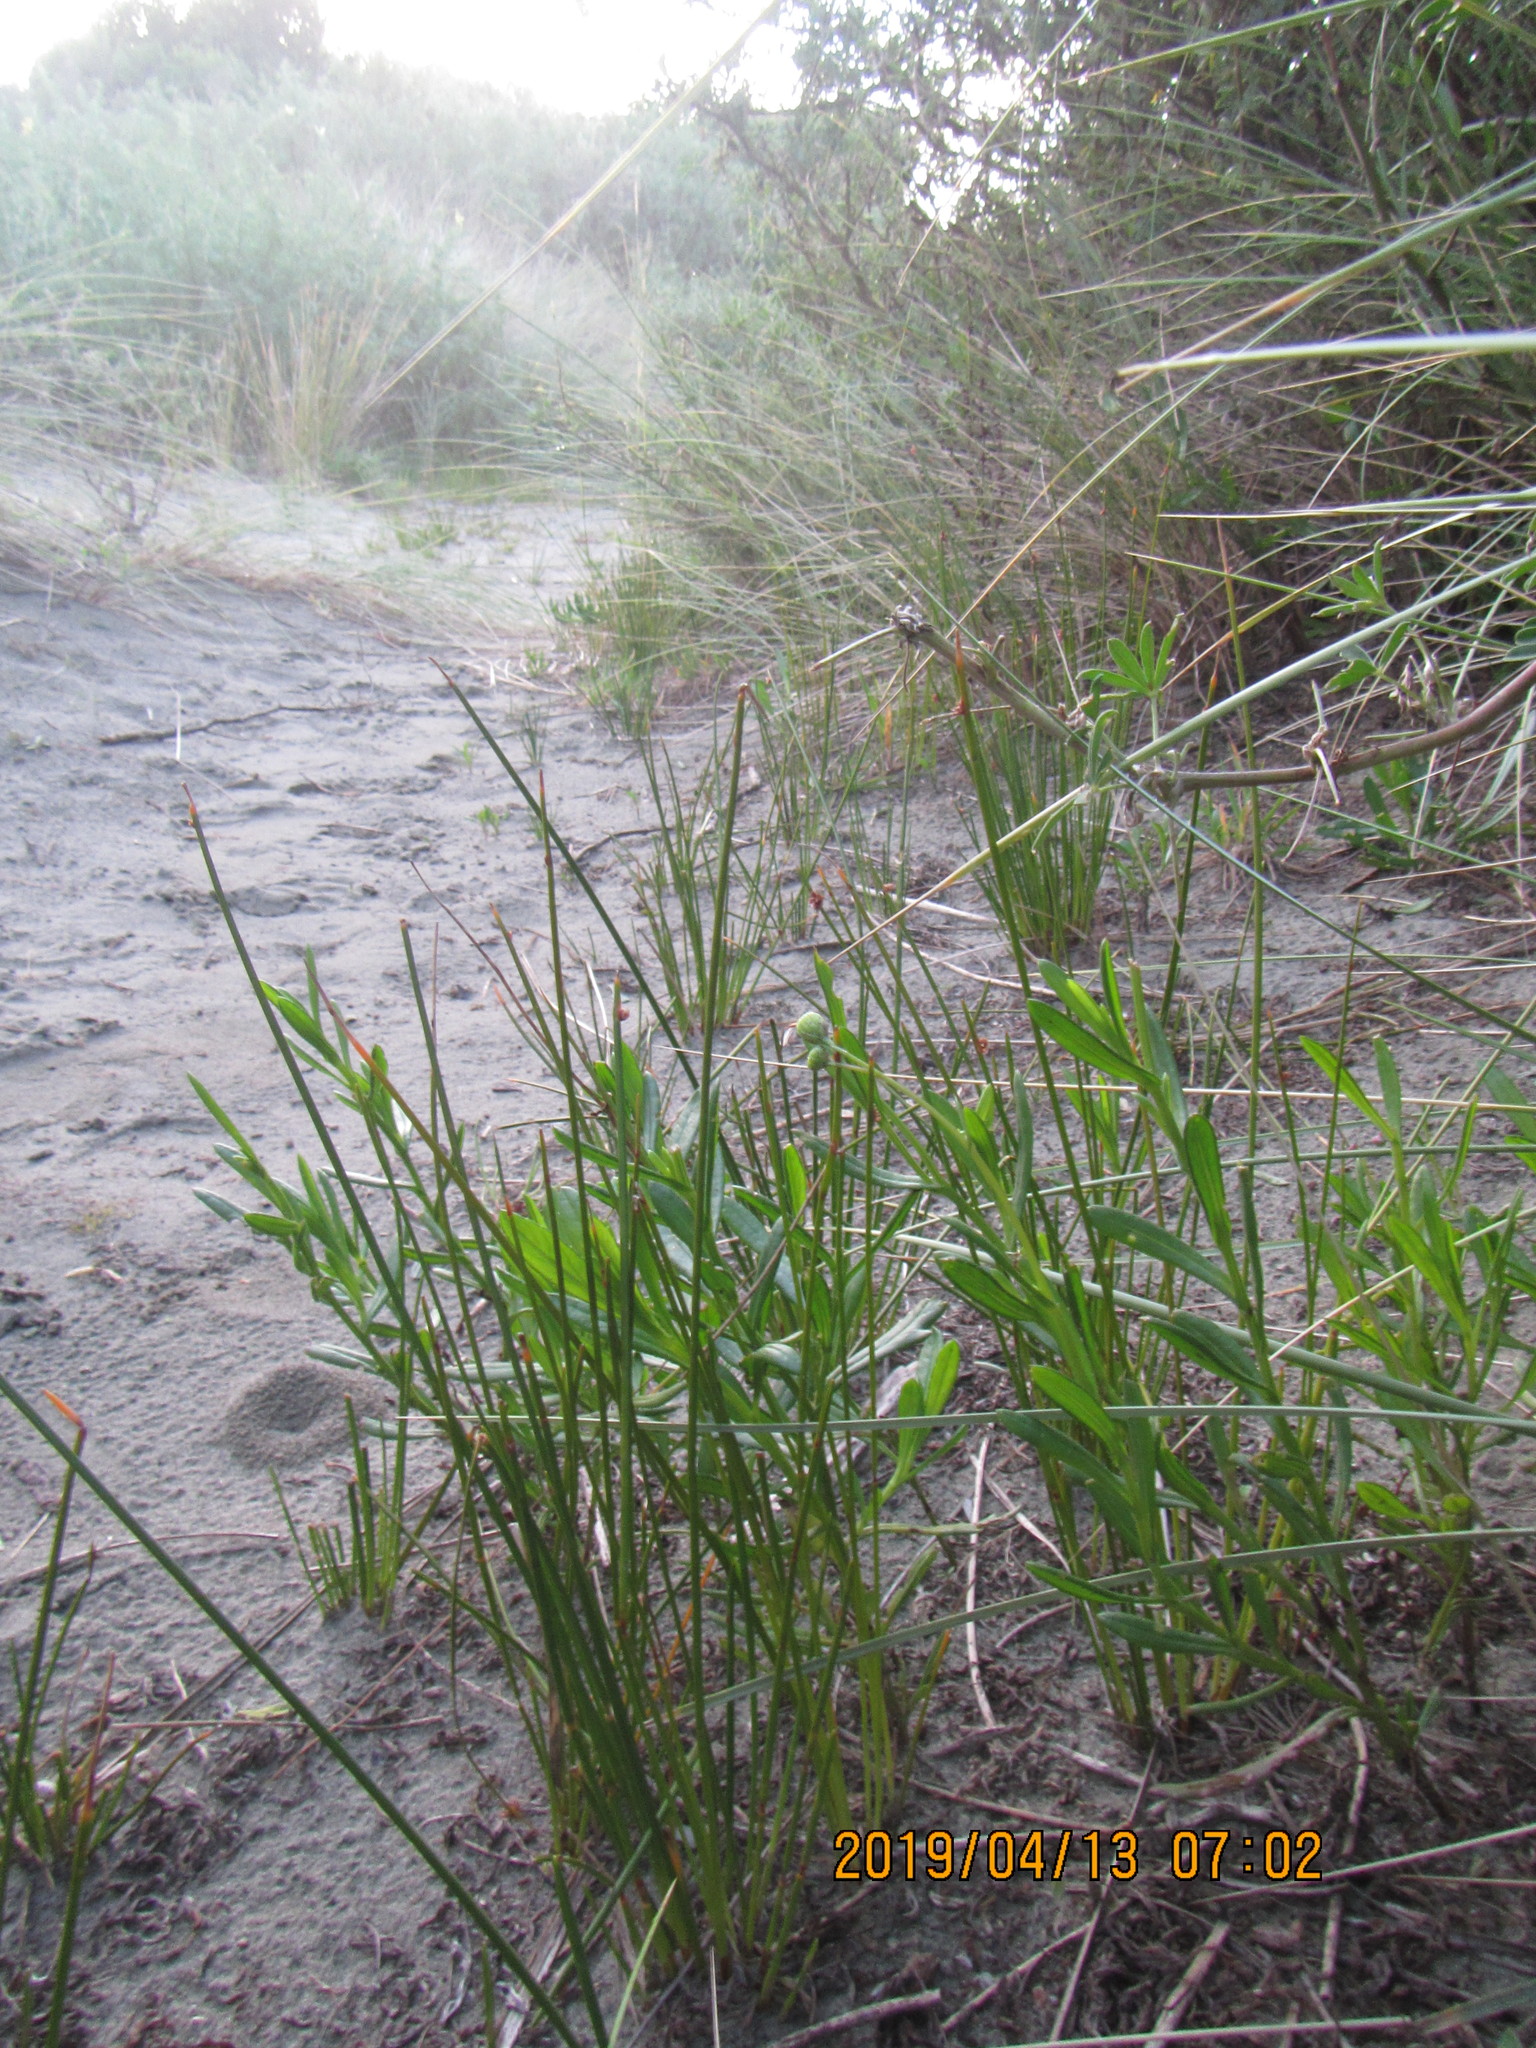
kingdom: Plantae
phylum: Tracheophyta
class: Magnoliopsida
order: Asterales
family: Asteraceae
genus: Senecio
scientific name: Senecio skirrhodon
